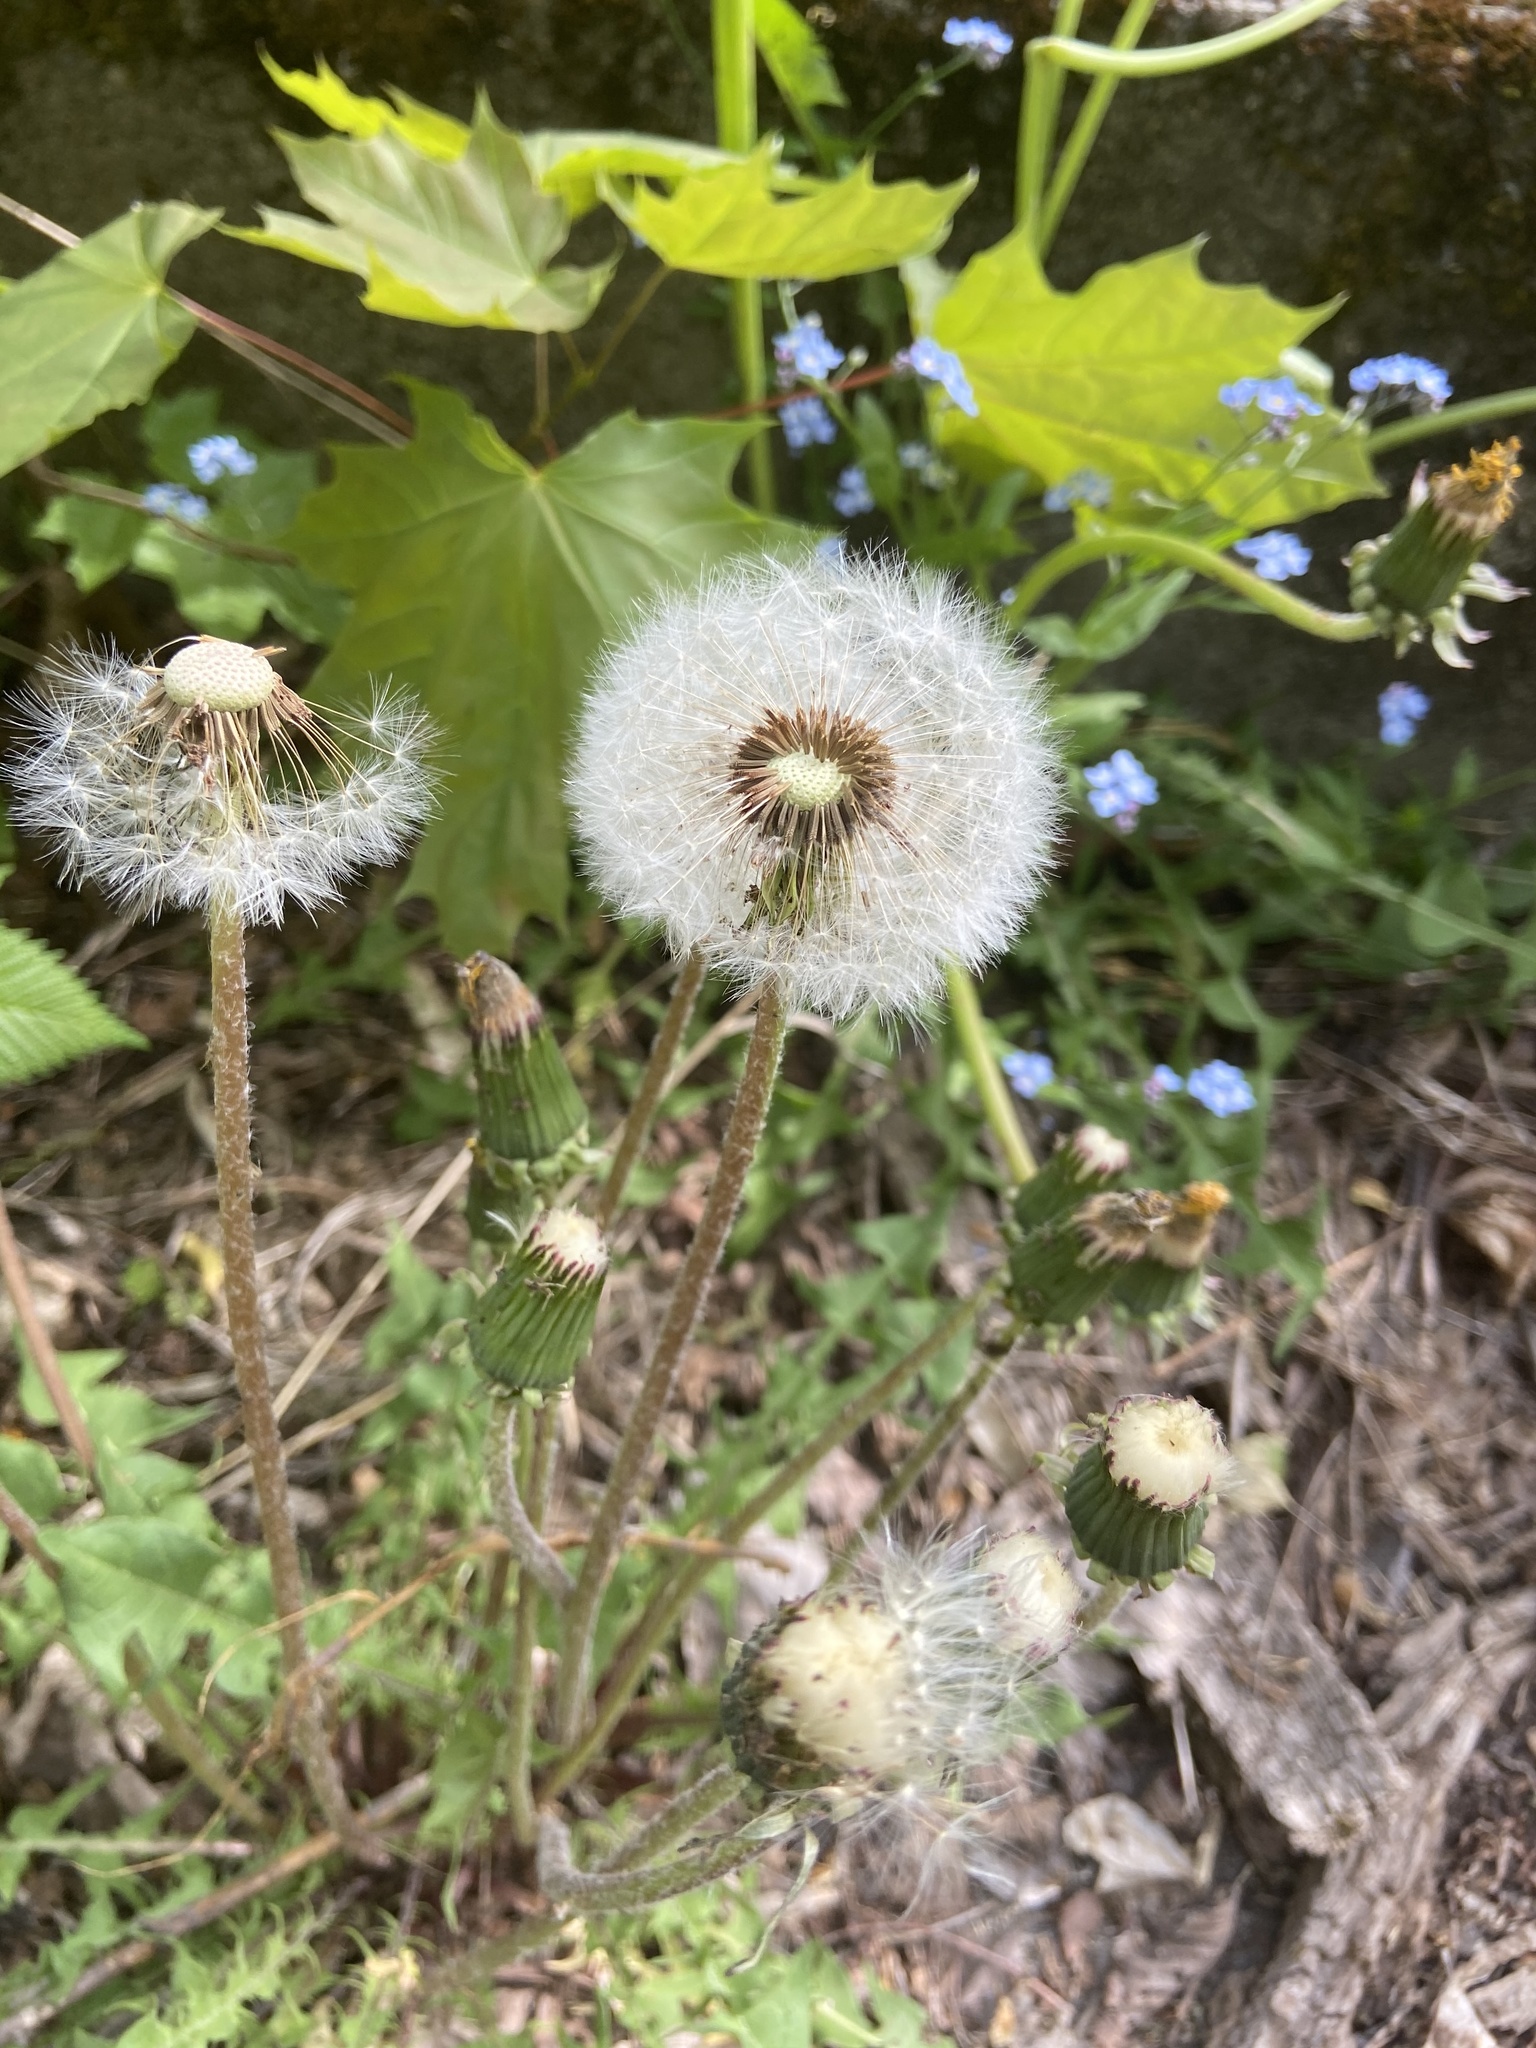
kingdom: Plantae
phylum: Tracheophyta
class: Magnoliopsida
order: Asterales
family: Asteraceae
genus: Taraxacum
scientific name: Taraxacum officinale
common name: Common dandelion
